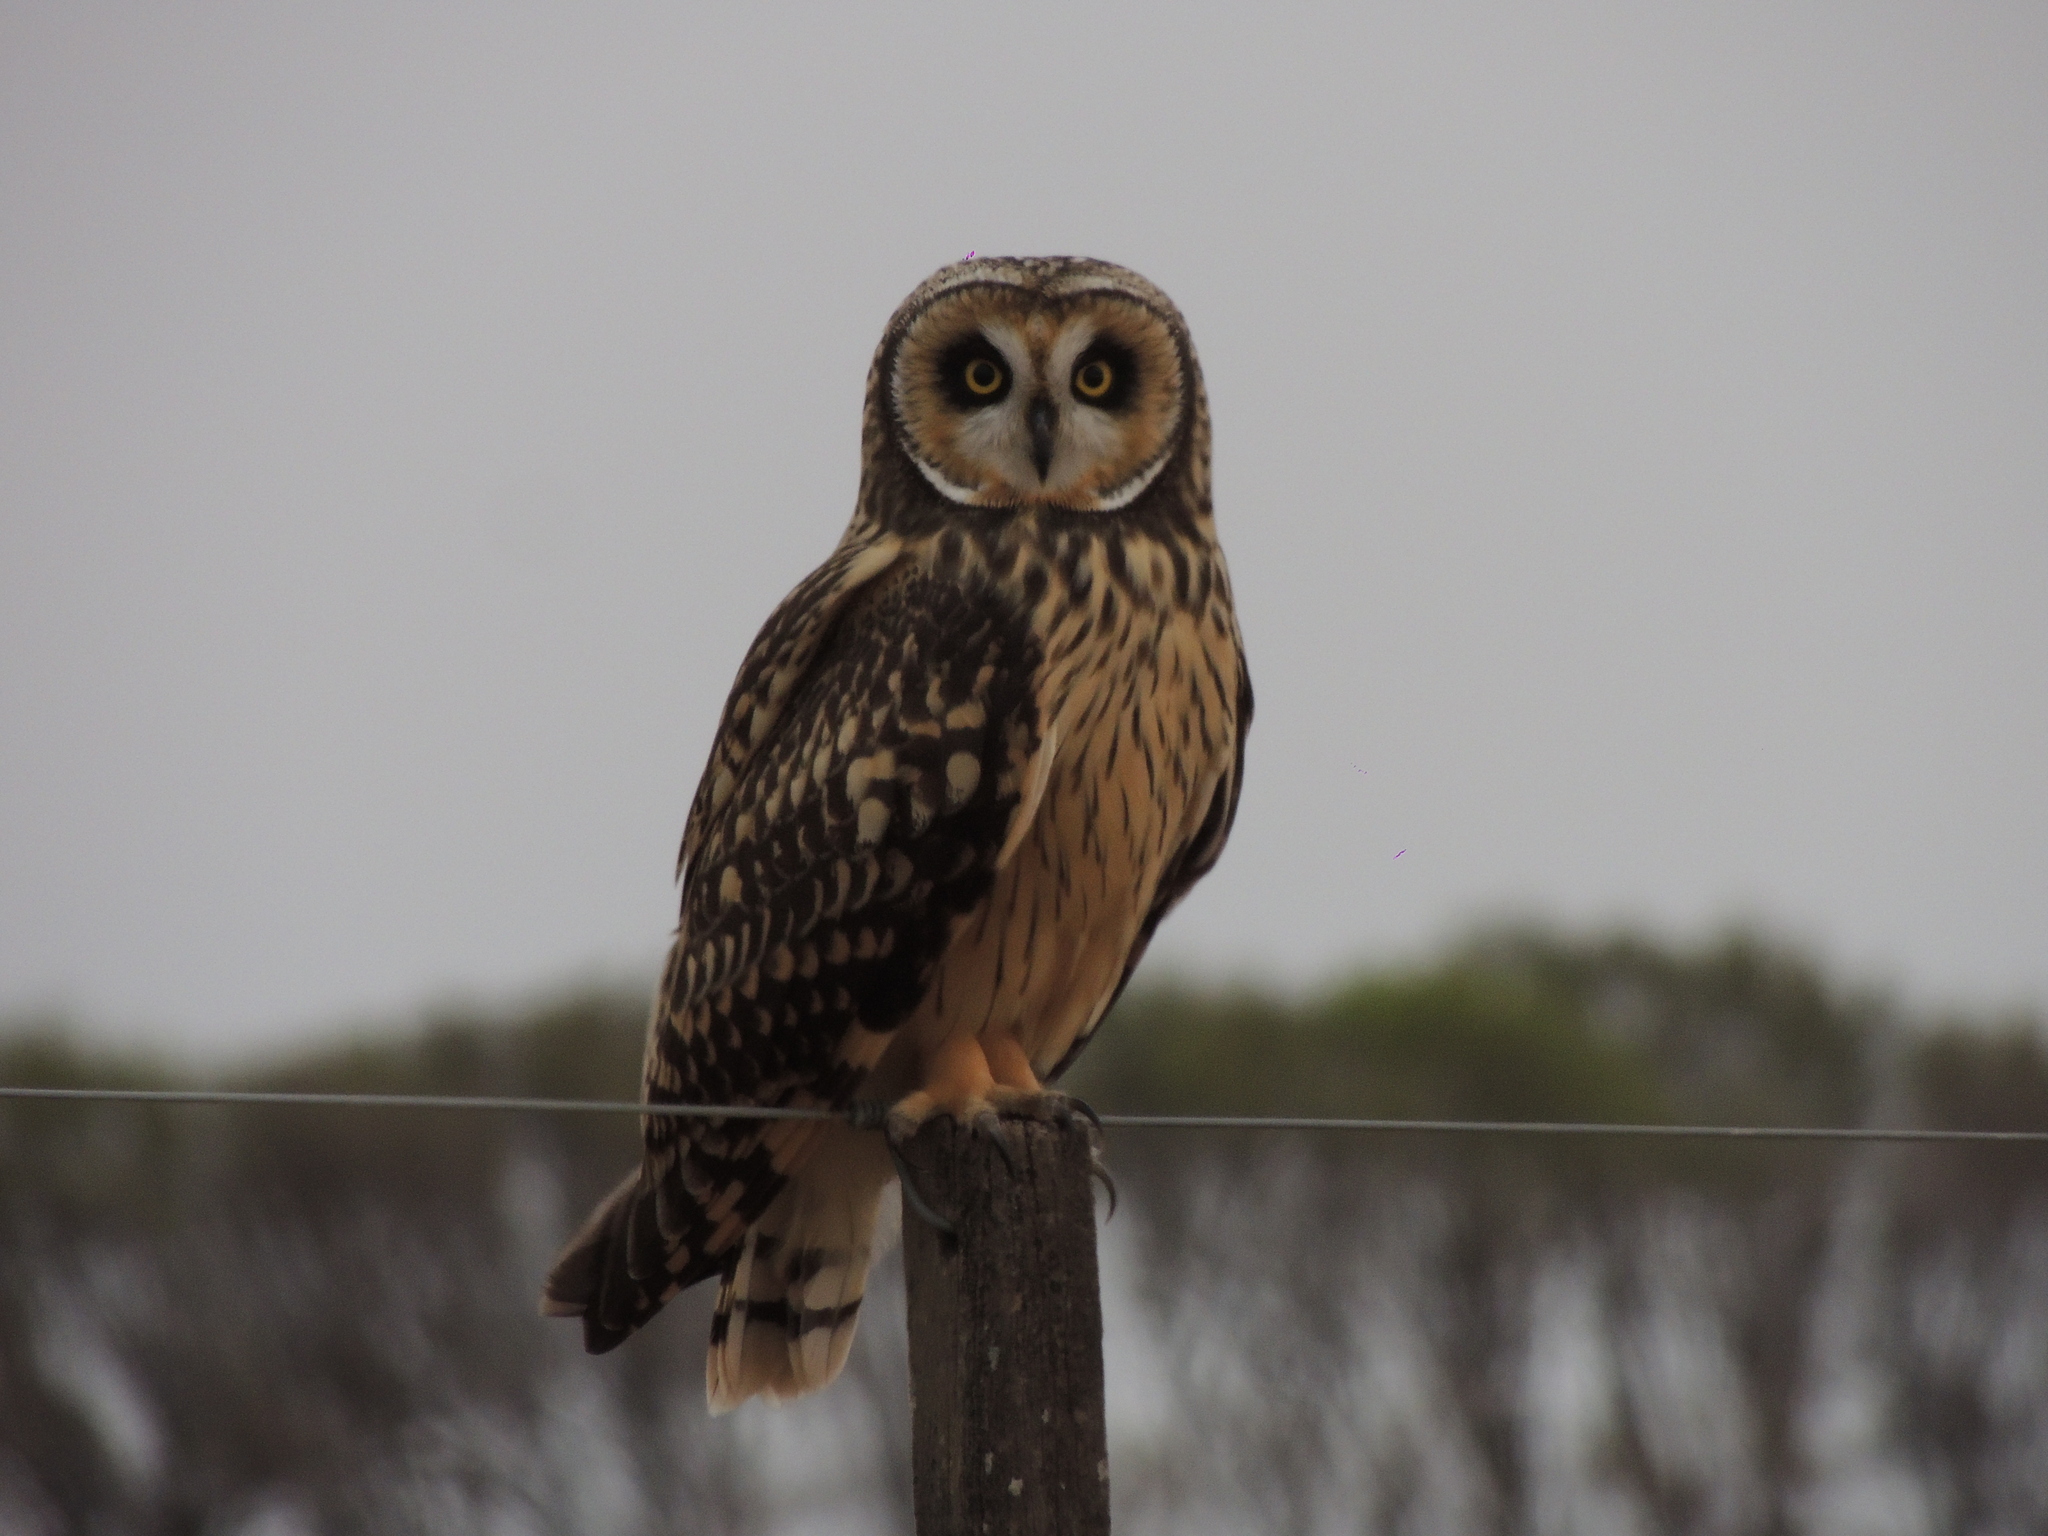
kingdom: Animalia
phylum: Chordata
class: Aves
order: Strigiformes
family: Strigidae
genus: Asio
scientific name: Asio flammeus
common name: Short-eared owl
